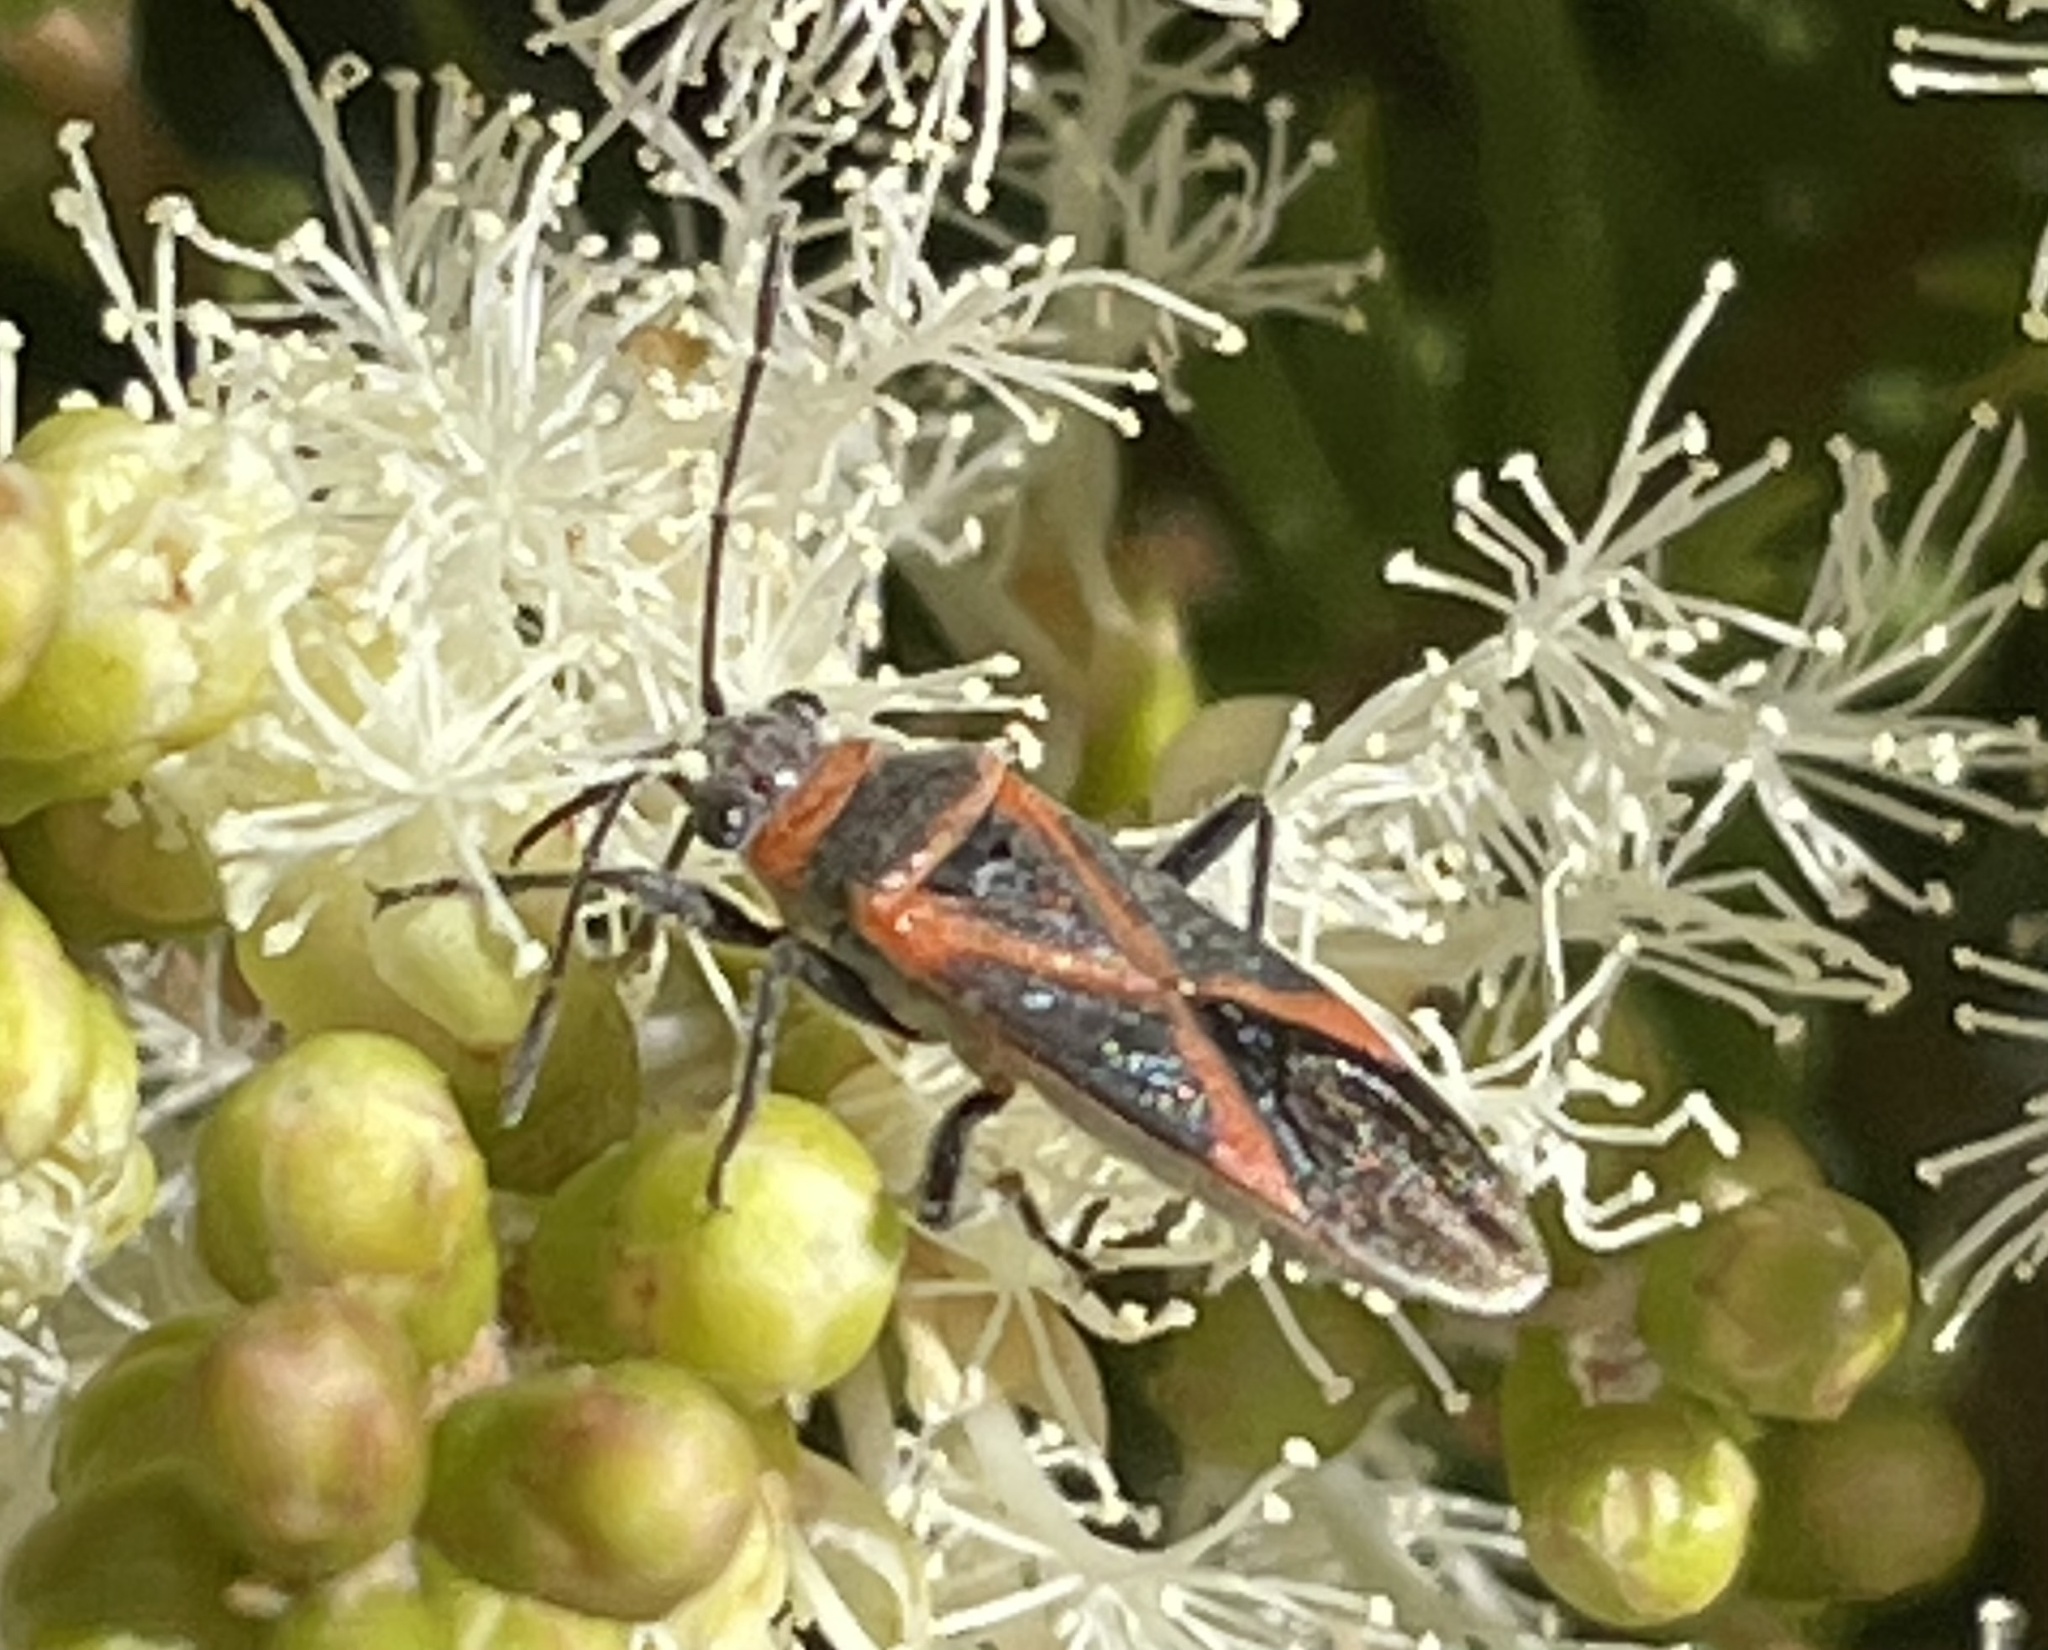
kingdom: Animalia
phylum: Arthropoda
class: Insecta
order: Hemiptera
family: Lygaeidae
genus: Arocatus
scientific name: Arocatus rusticus
